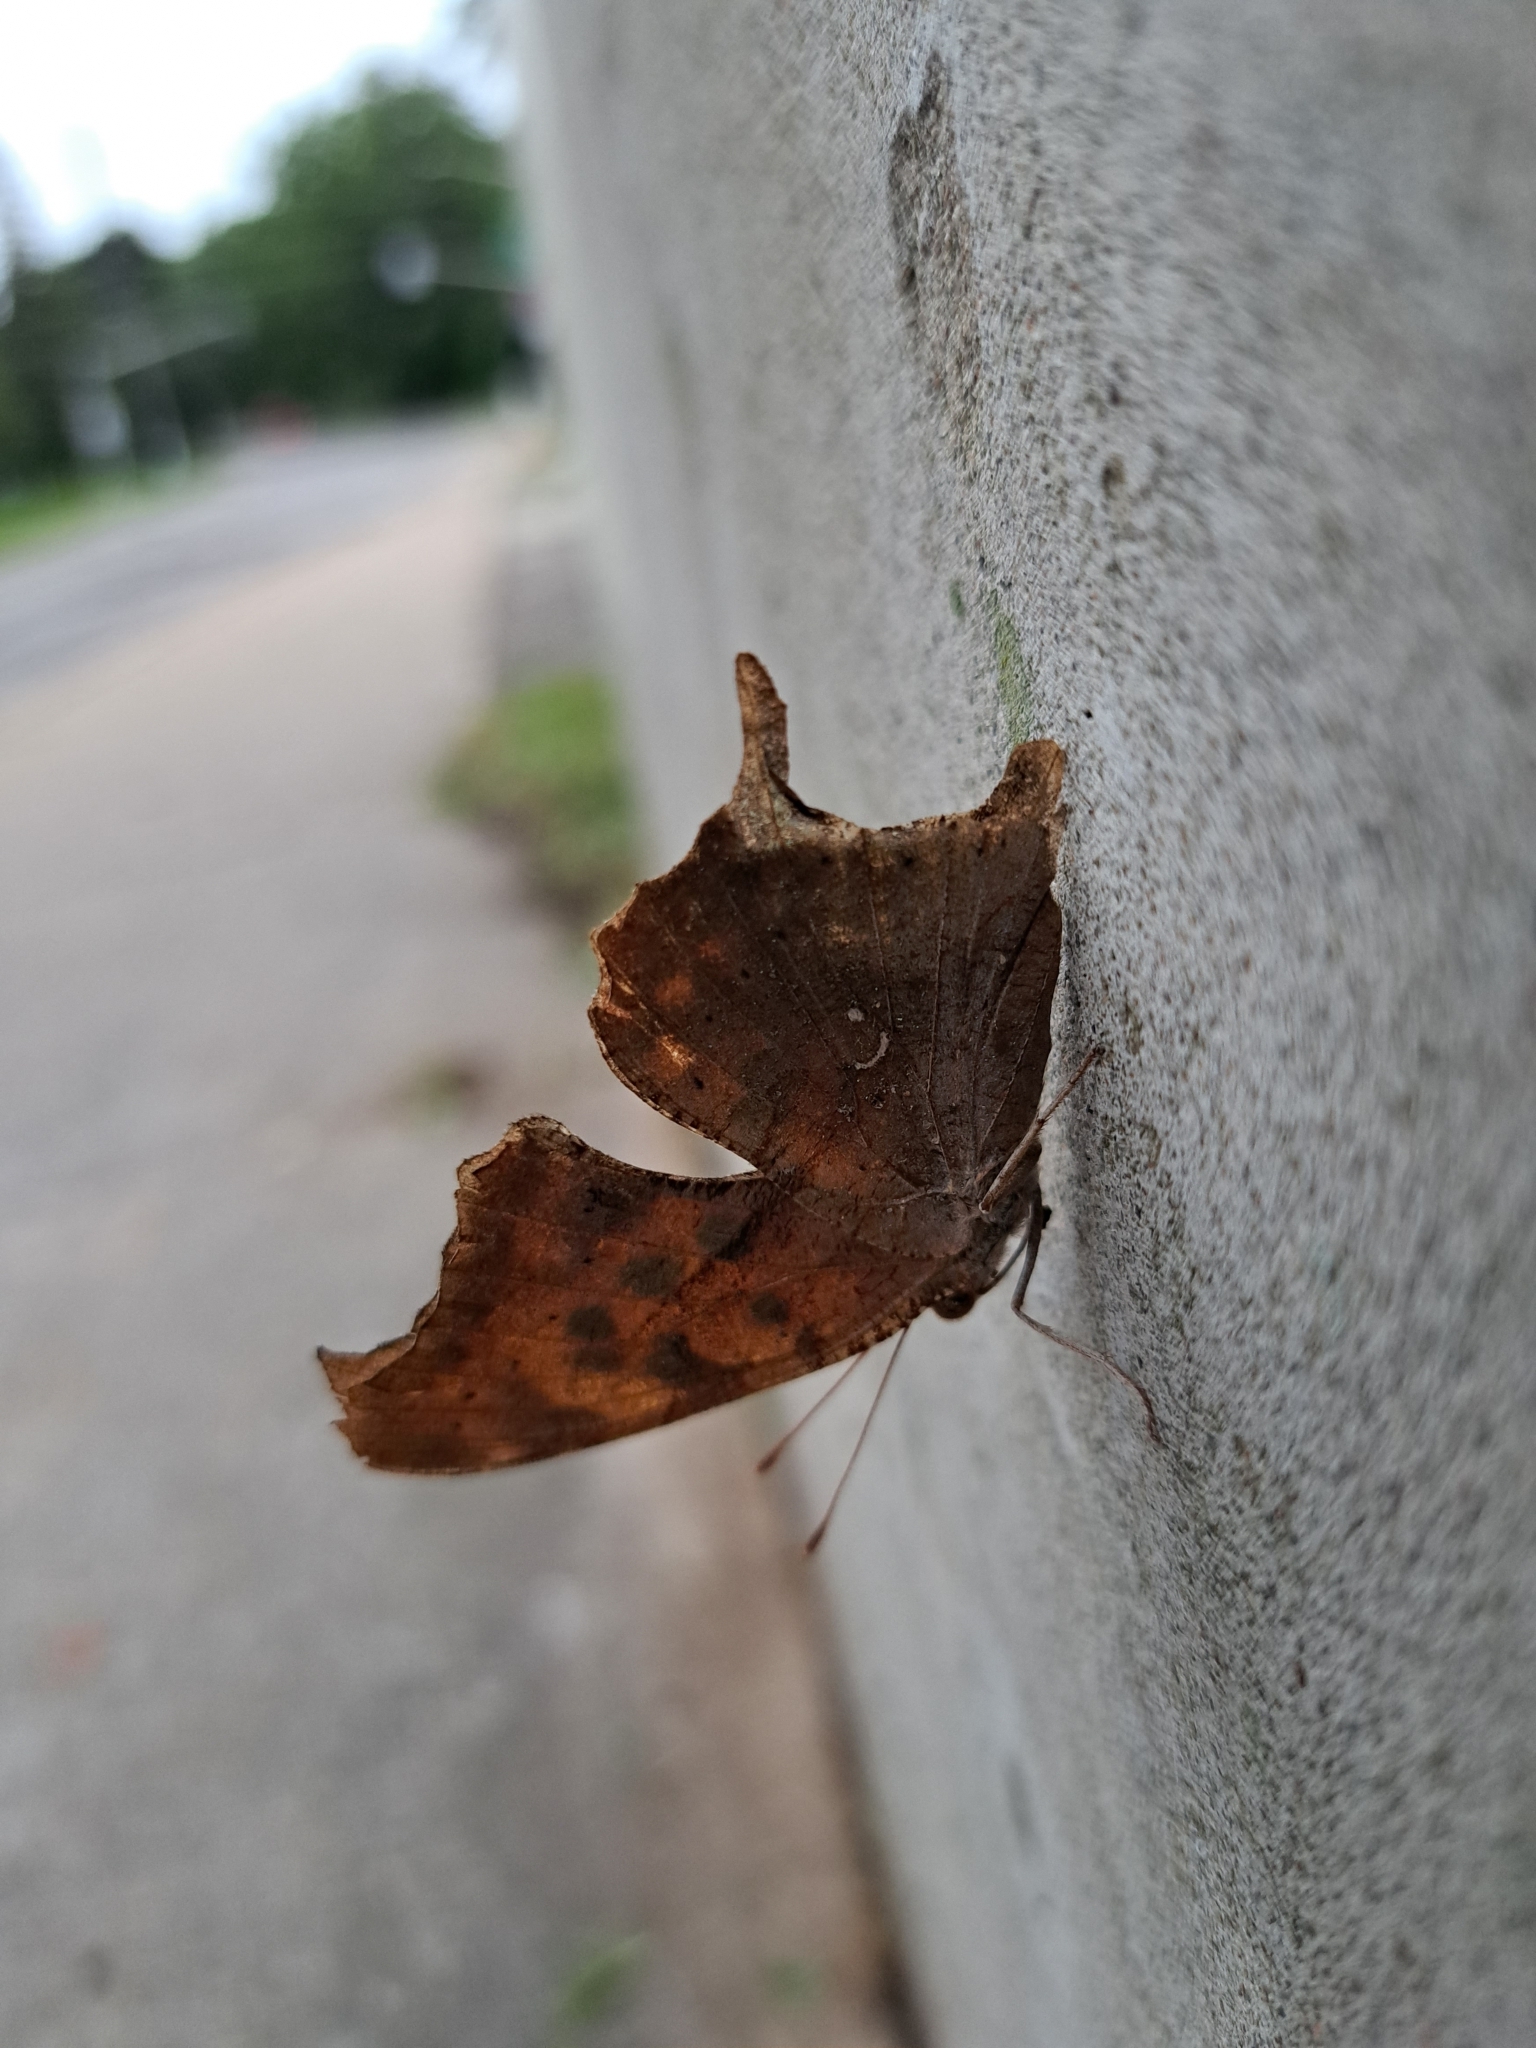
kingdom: Animalia
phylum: Arthropoda
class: Insecta
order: Lepidoptera
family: Nymphalidae
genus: Polygonia
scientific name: Polygonia interrogationis
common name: Question mark
